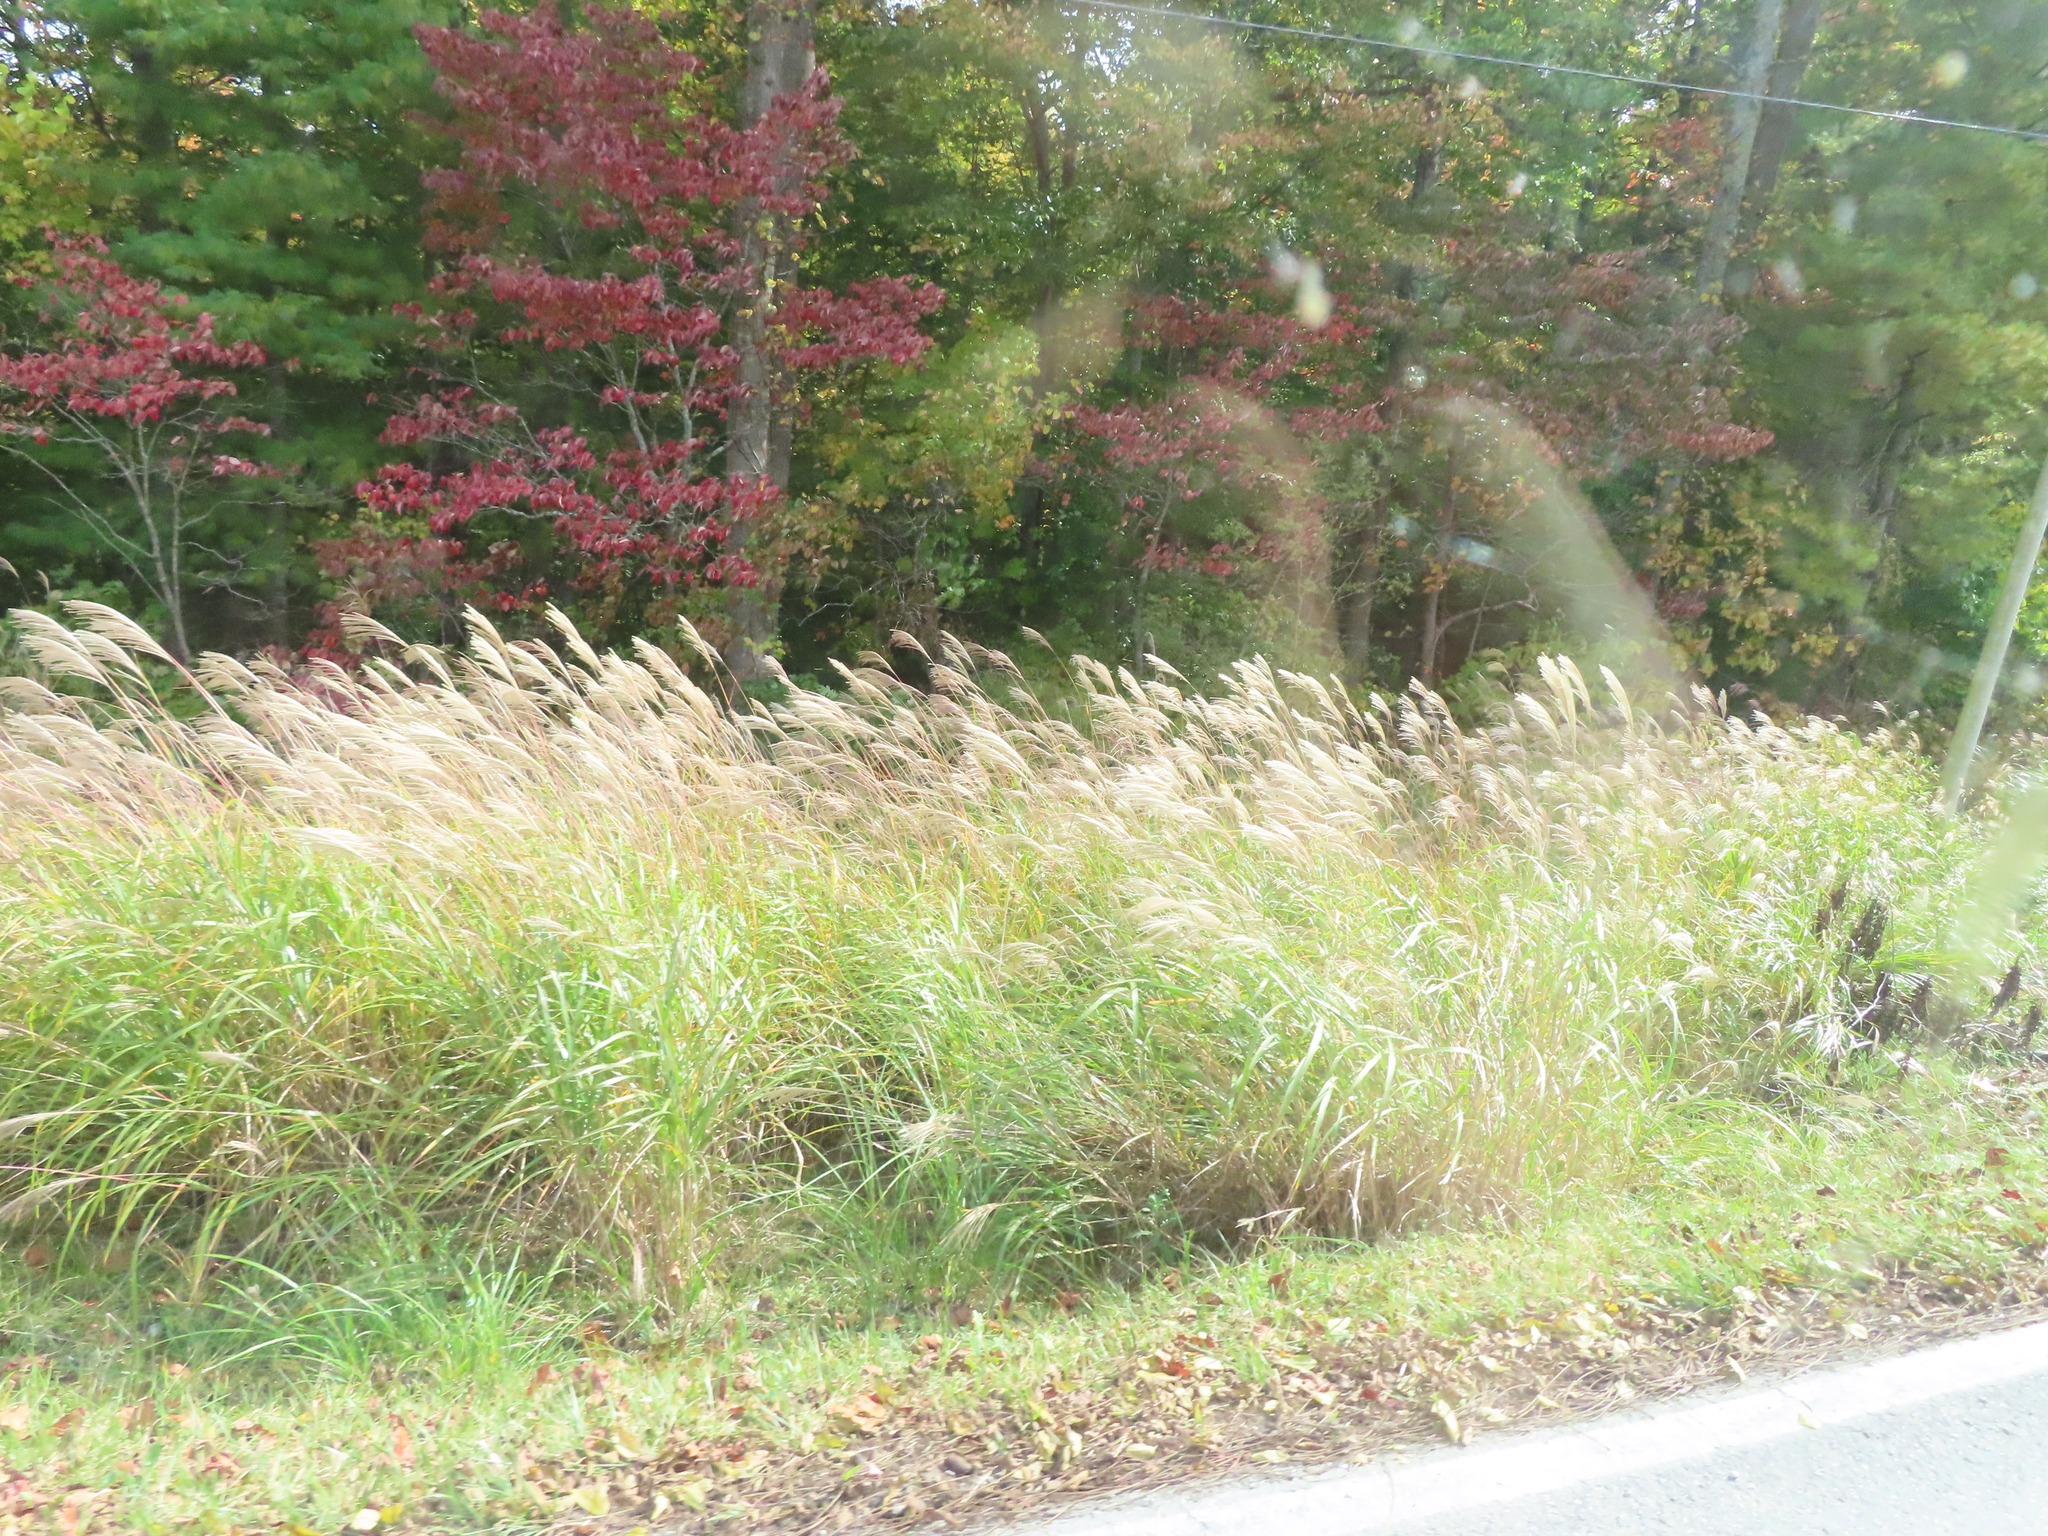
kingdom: Plantae
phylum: Tracheophyta
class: Liliopsida
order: Poales
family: Poaceae
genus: Miscanthus
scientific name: Miscanthus sinensis
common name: Chinese silvergrass
